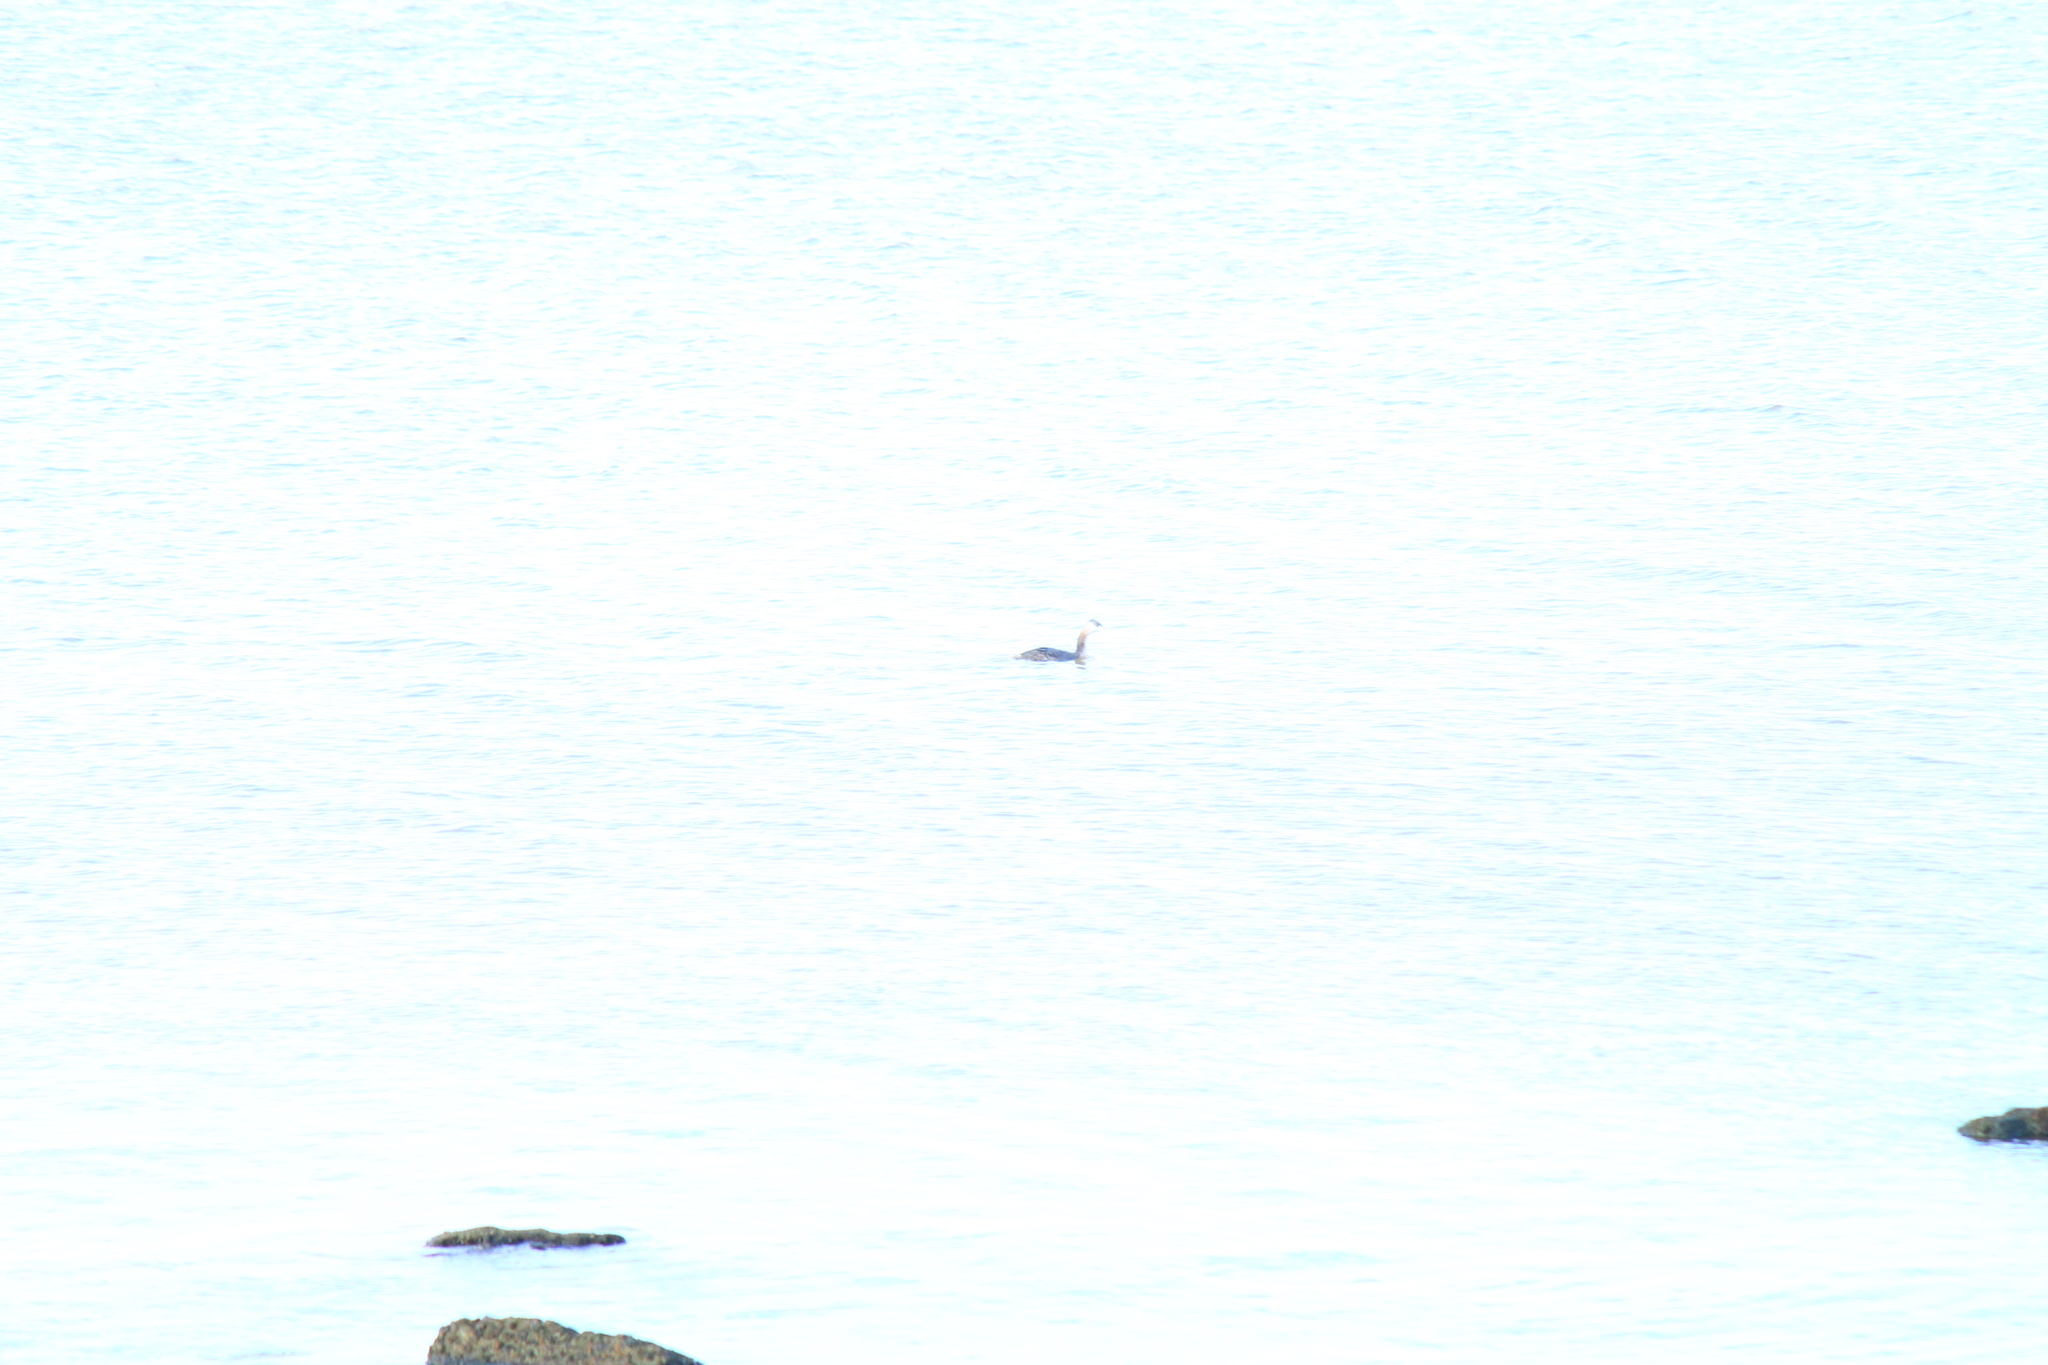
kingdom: Animalia
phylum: Chordata
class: Aves
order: Podicipediformes
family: Podicipedidae
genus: Podiceps
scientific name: Podiceps major
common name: Great grebe
